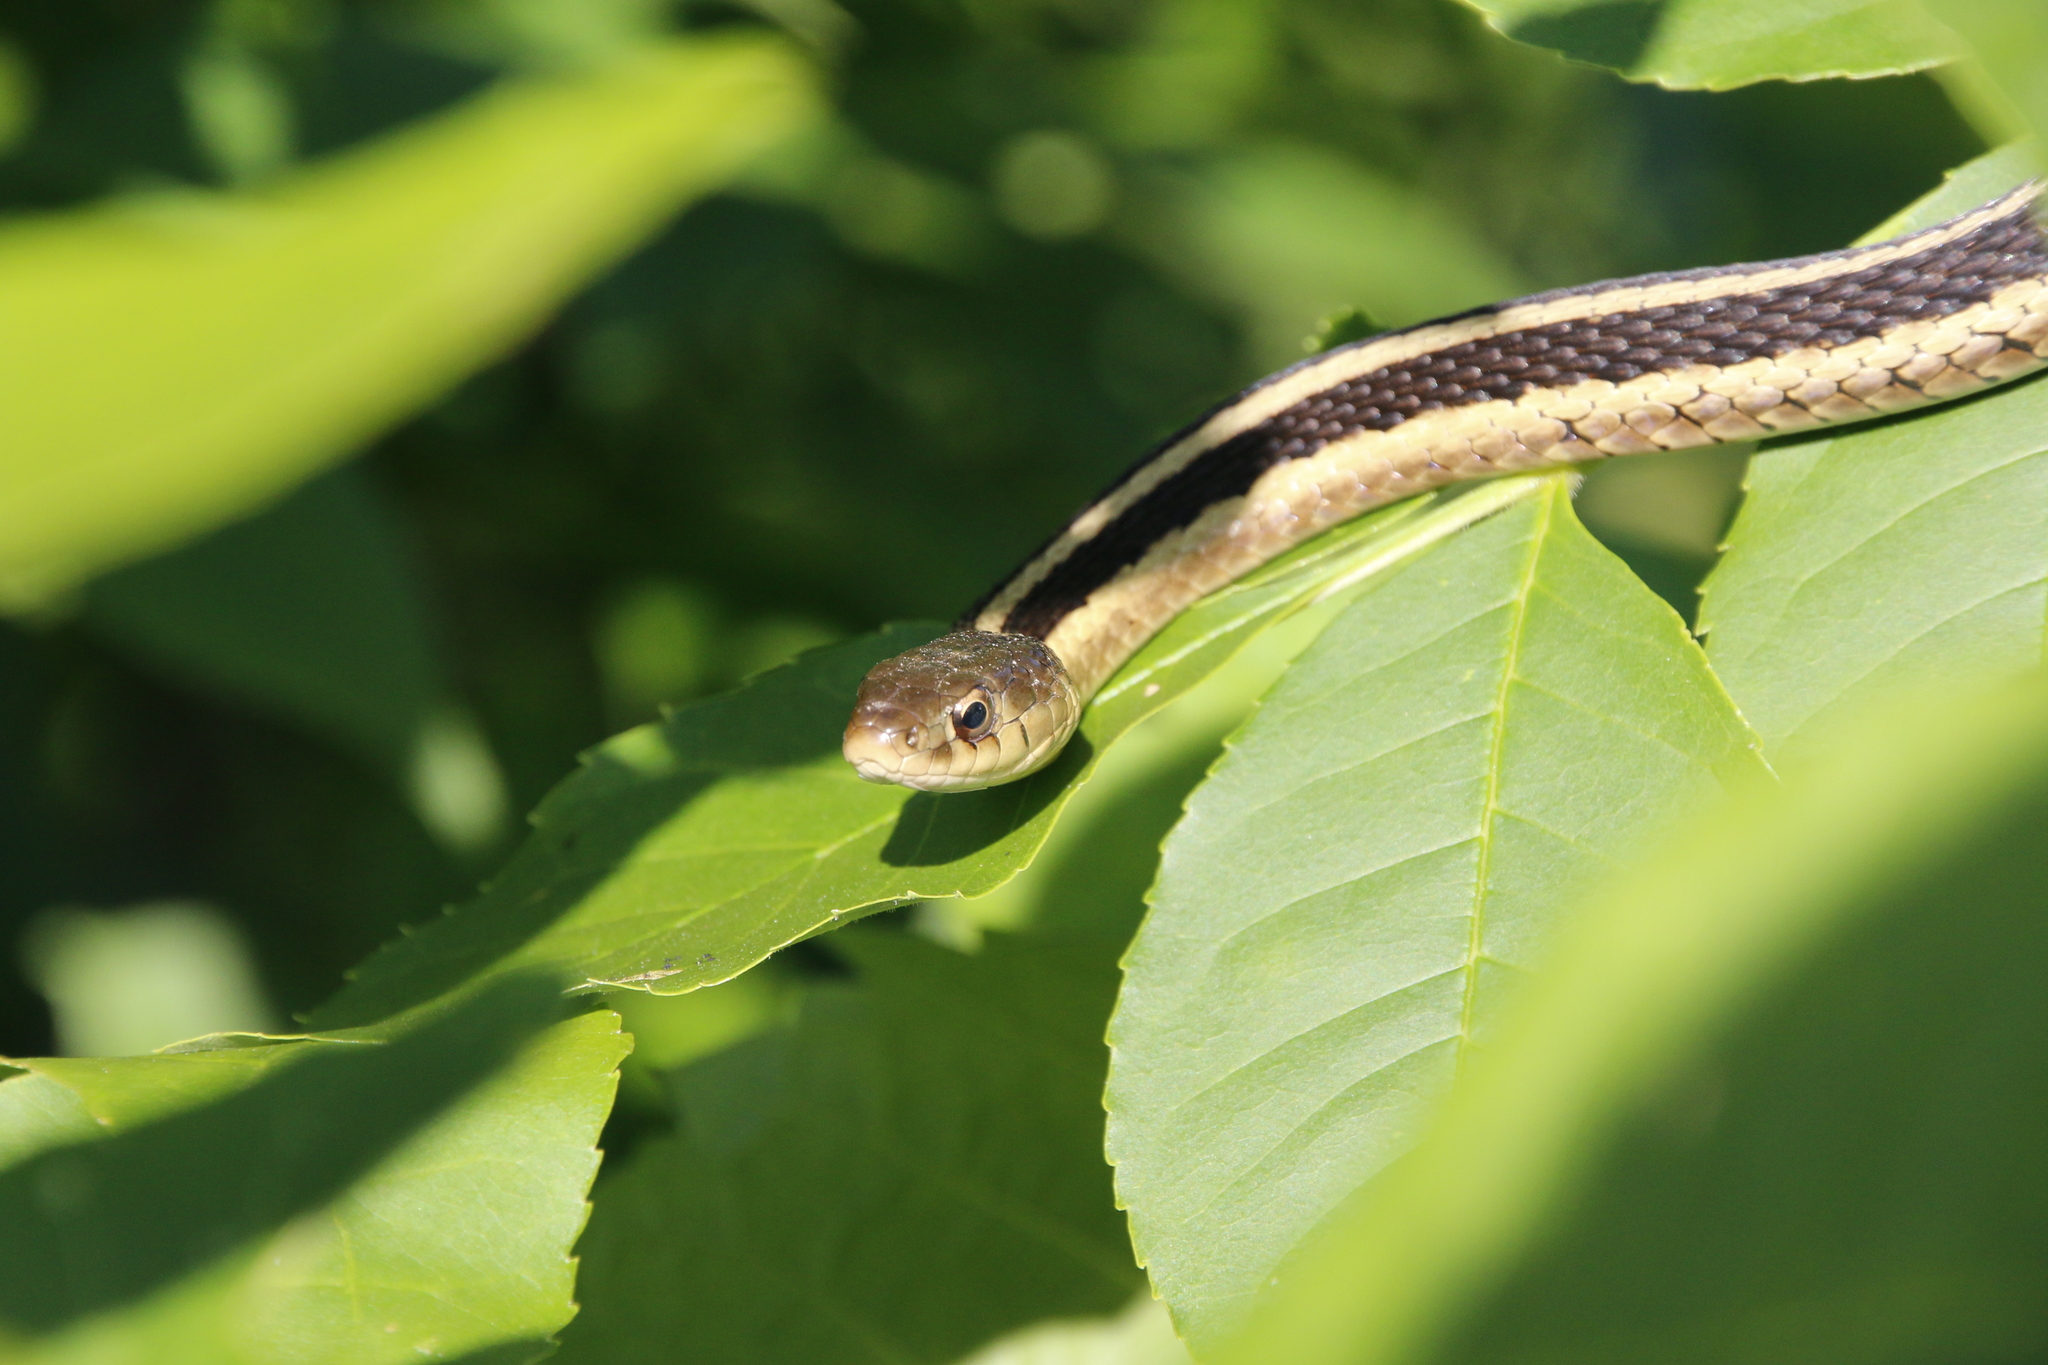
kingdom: Animalia
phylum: Chordata
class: Squamata
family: Colubridae
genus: Thamnophis
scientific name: Thamnophis sirtalis
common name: Common garter snake
